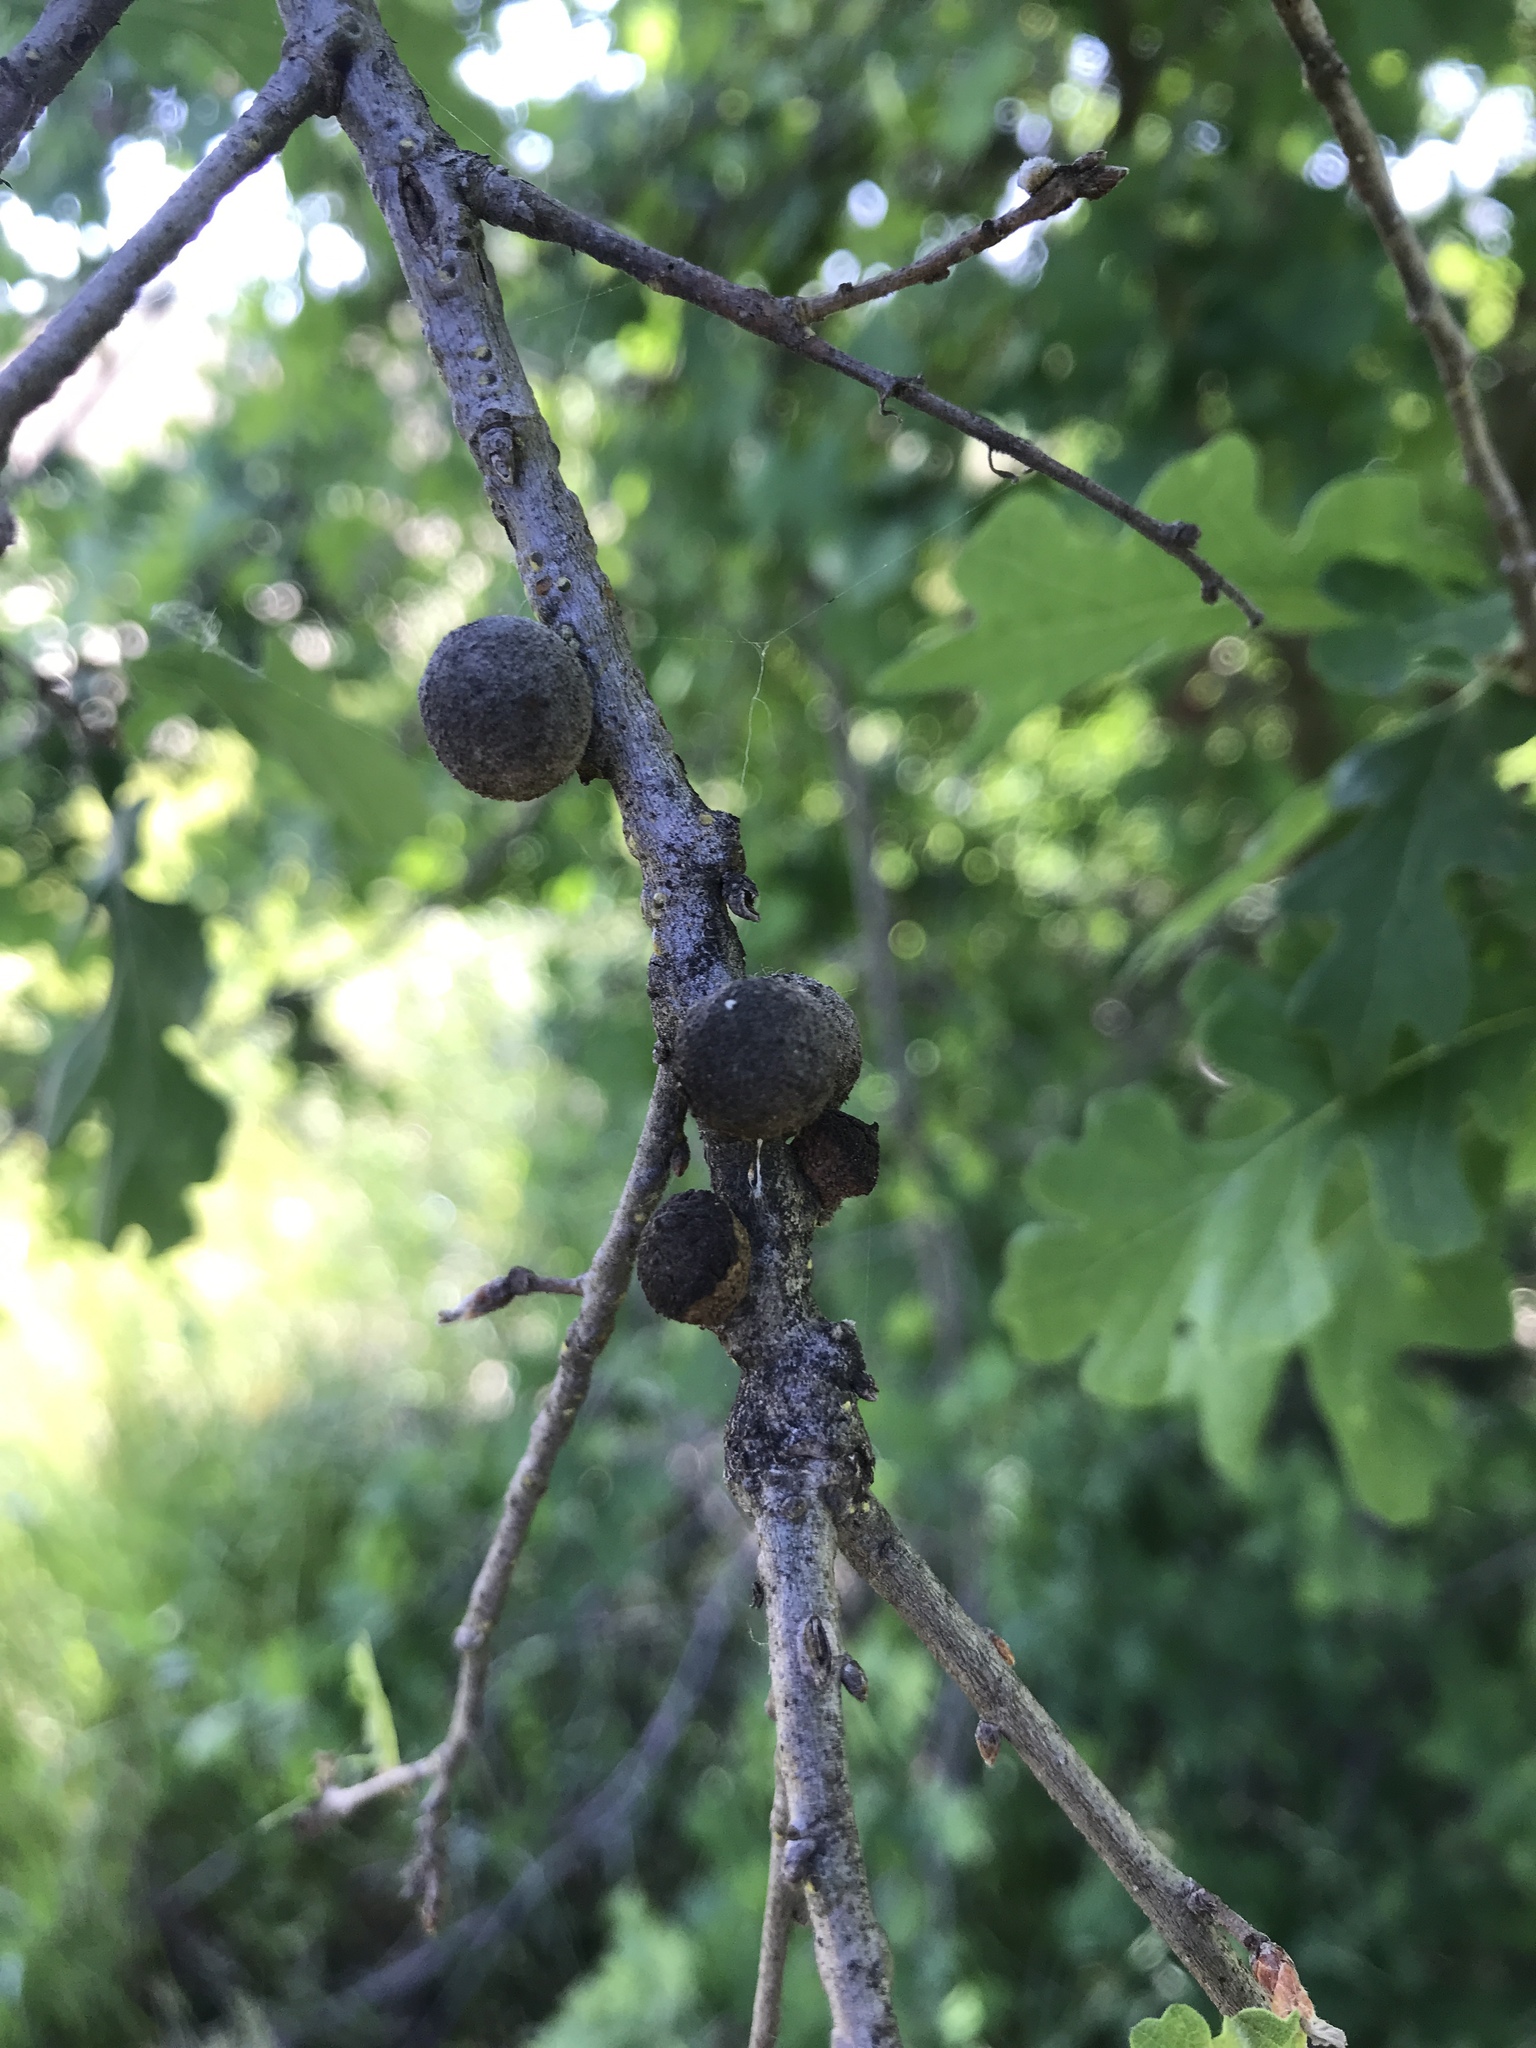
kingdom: Animalia
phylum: Arthropoda
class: Insecta
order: Hymenoptera
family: Cynipidae
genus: Disholcaspis
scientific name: Disholcaspis
